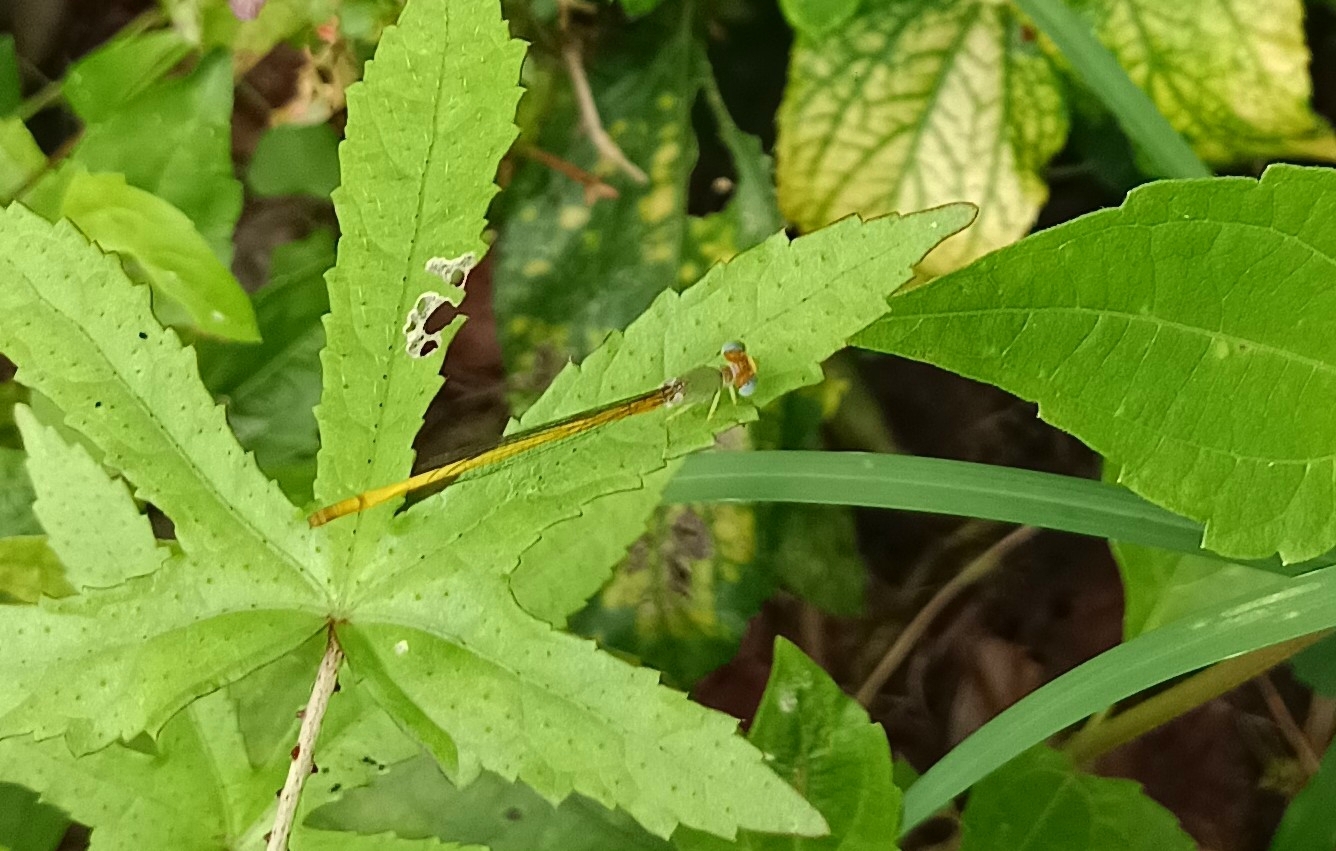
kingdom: Animalia
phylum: Arthropoda
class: Insecta
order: Odonata
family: Coenagrionidae
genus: Ceriagrion
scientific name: Ceriagrion coromandelianum
